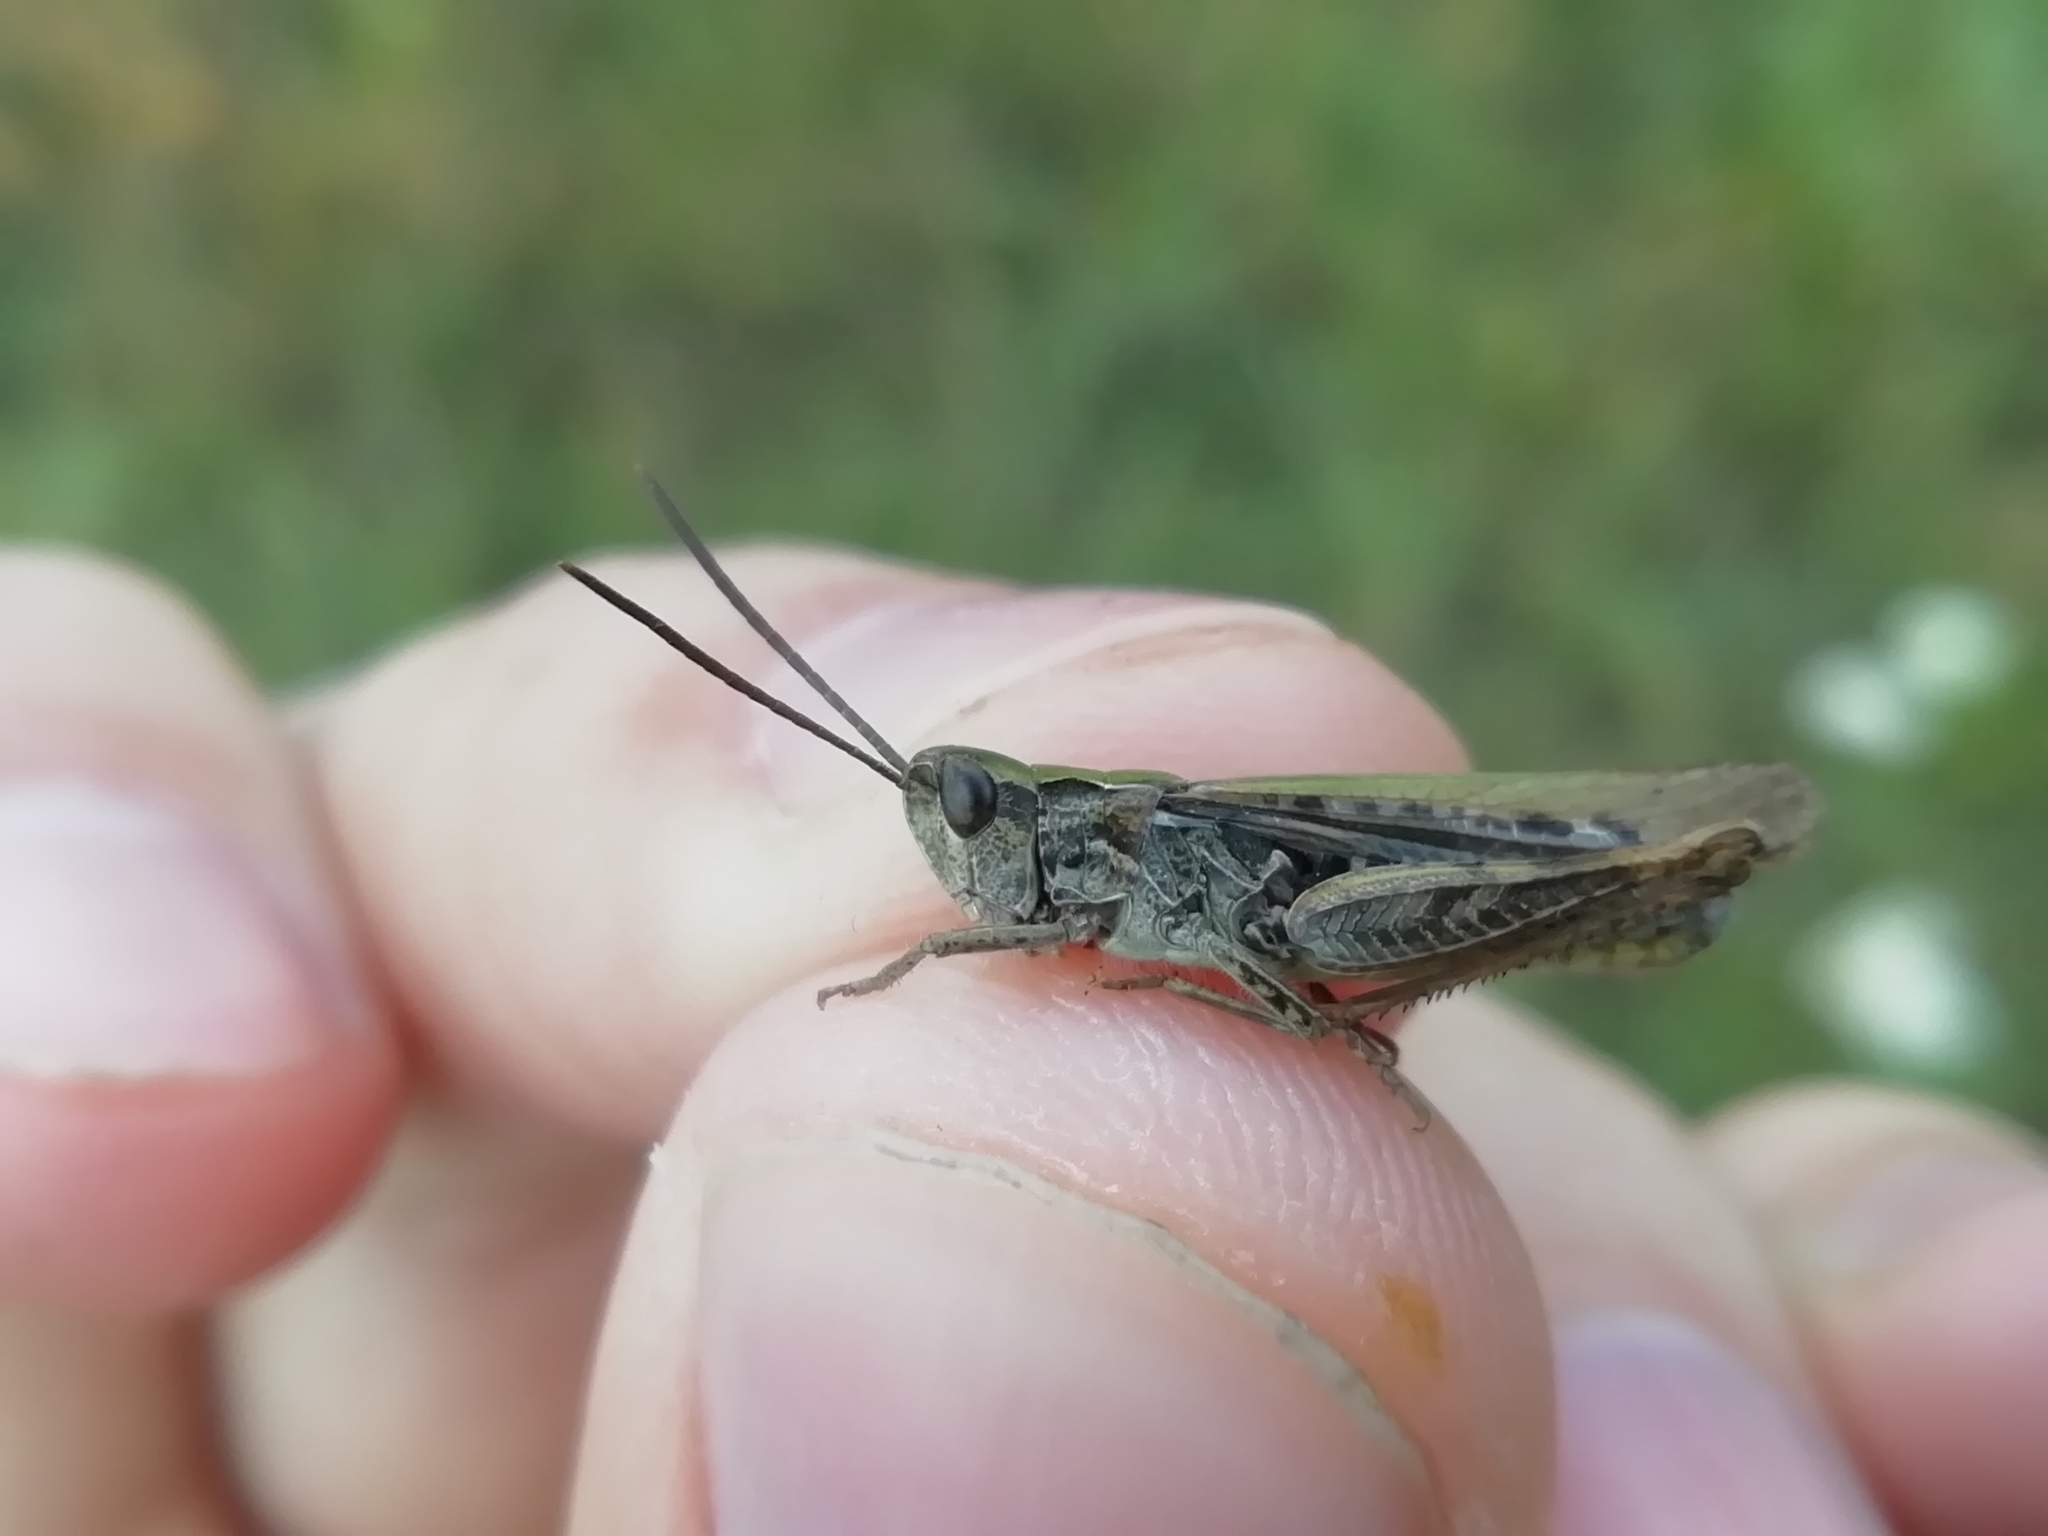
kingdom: Animalia
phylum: Arthropoda
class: Insecta
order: Orthoptera
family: Acrididae
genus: Chorthippus
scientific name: Chorthippus mollis
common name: Lesser field grasshopper
